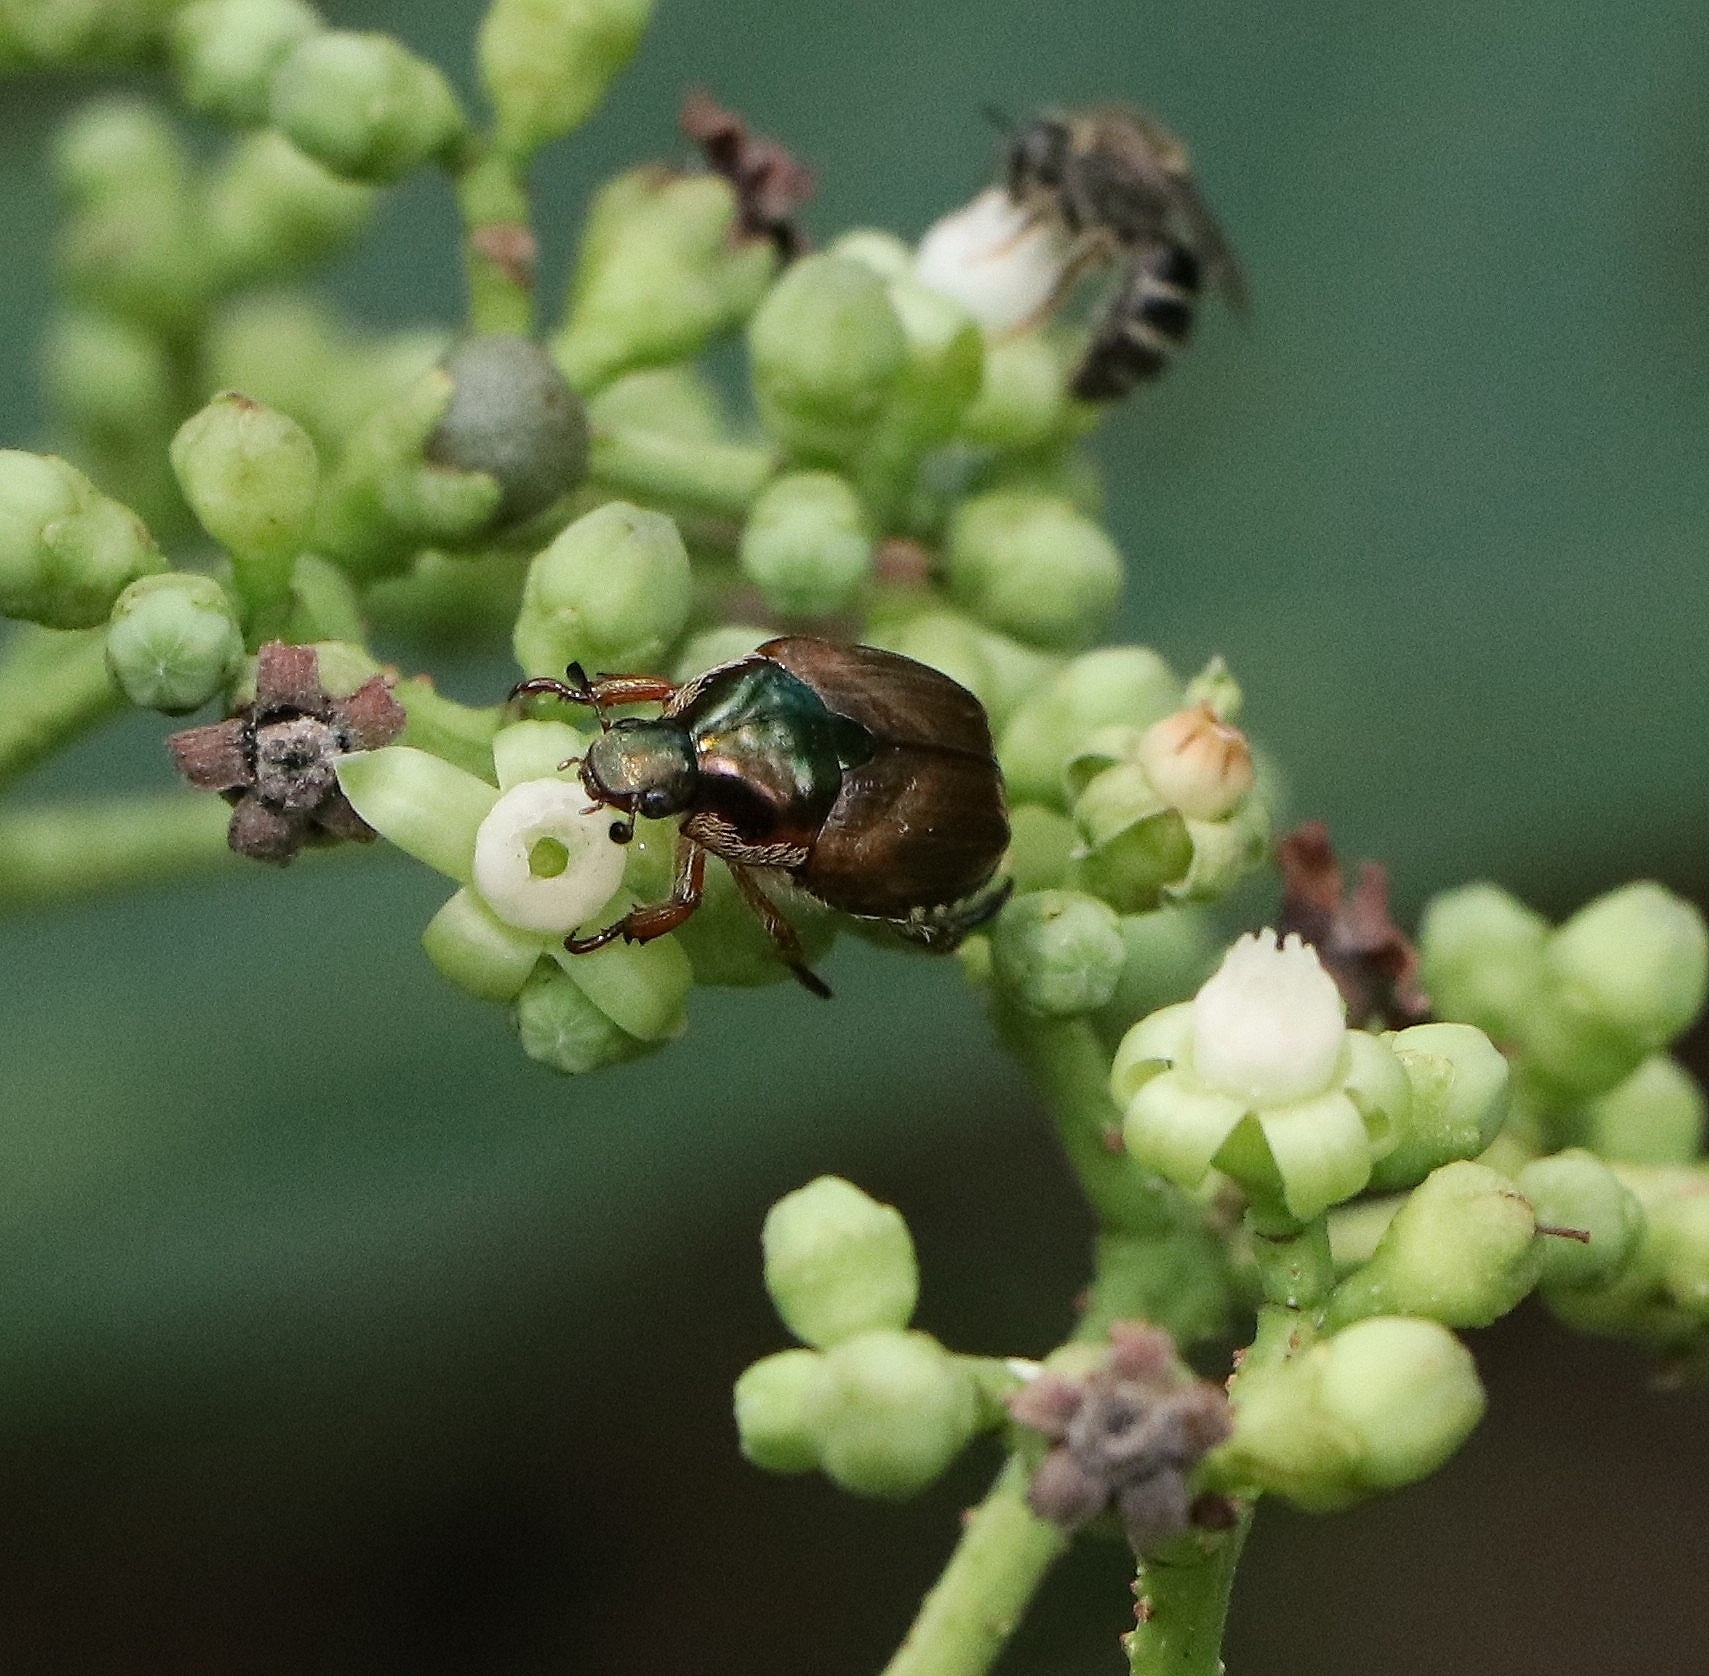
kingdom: Animalia
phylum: Arthropoda
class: Insecta
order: Coleoptera
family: Scarabaeidae
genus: Popillia
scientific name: Popillia japonica
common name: Japanese beetle
